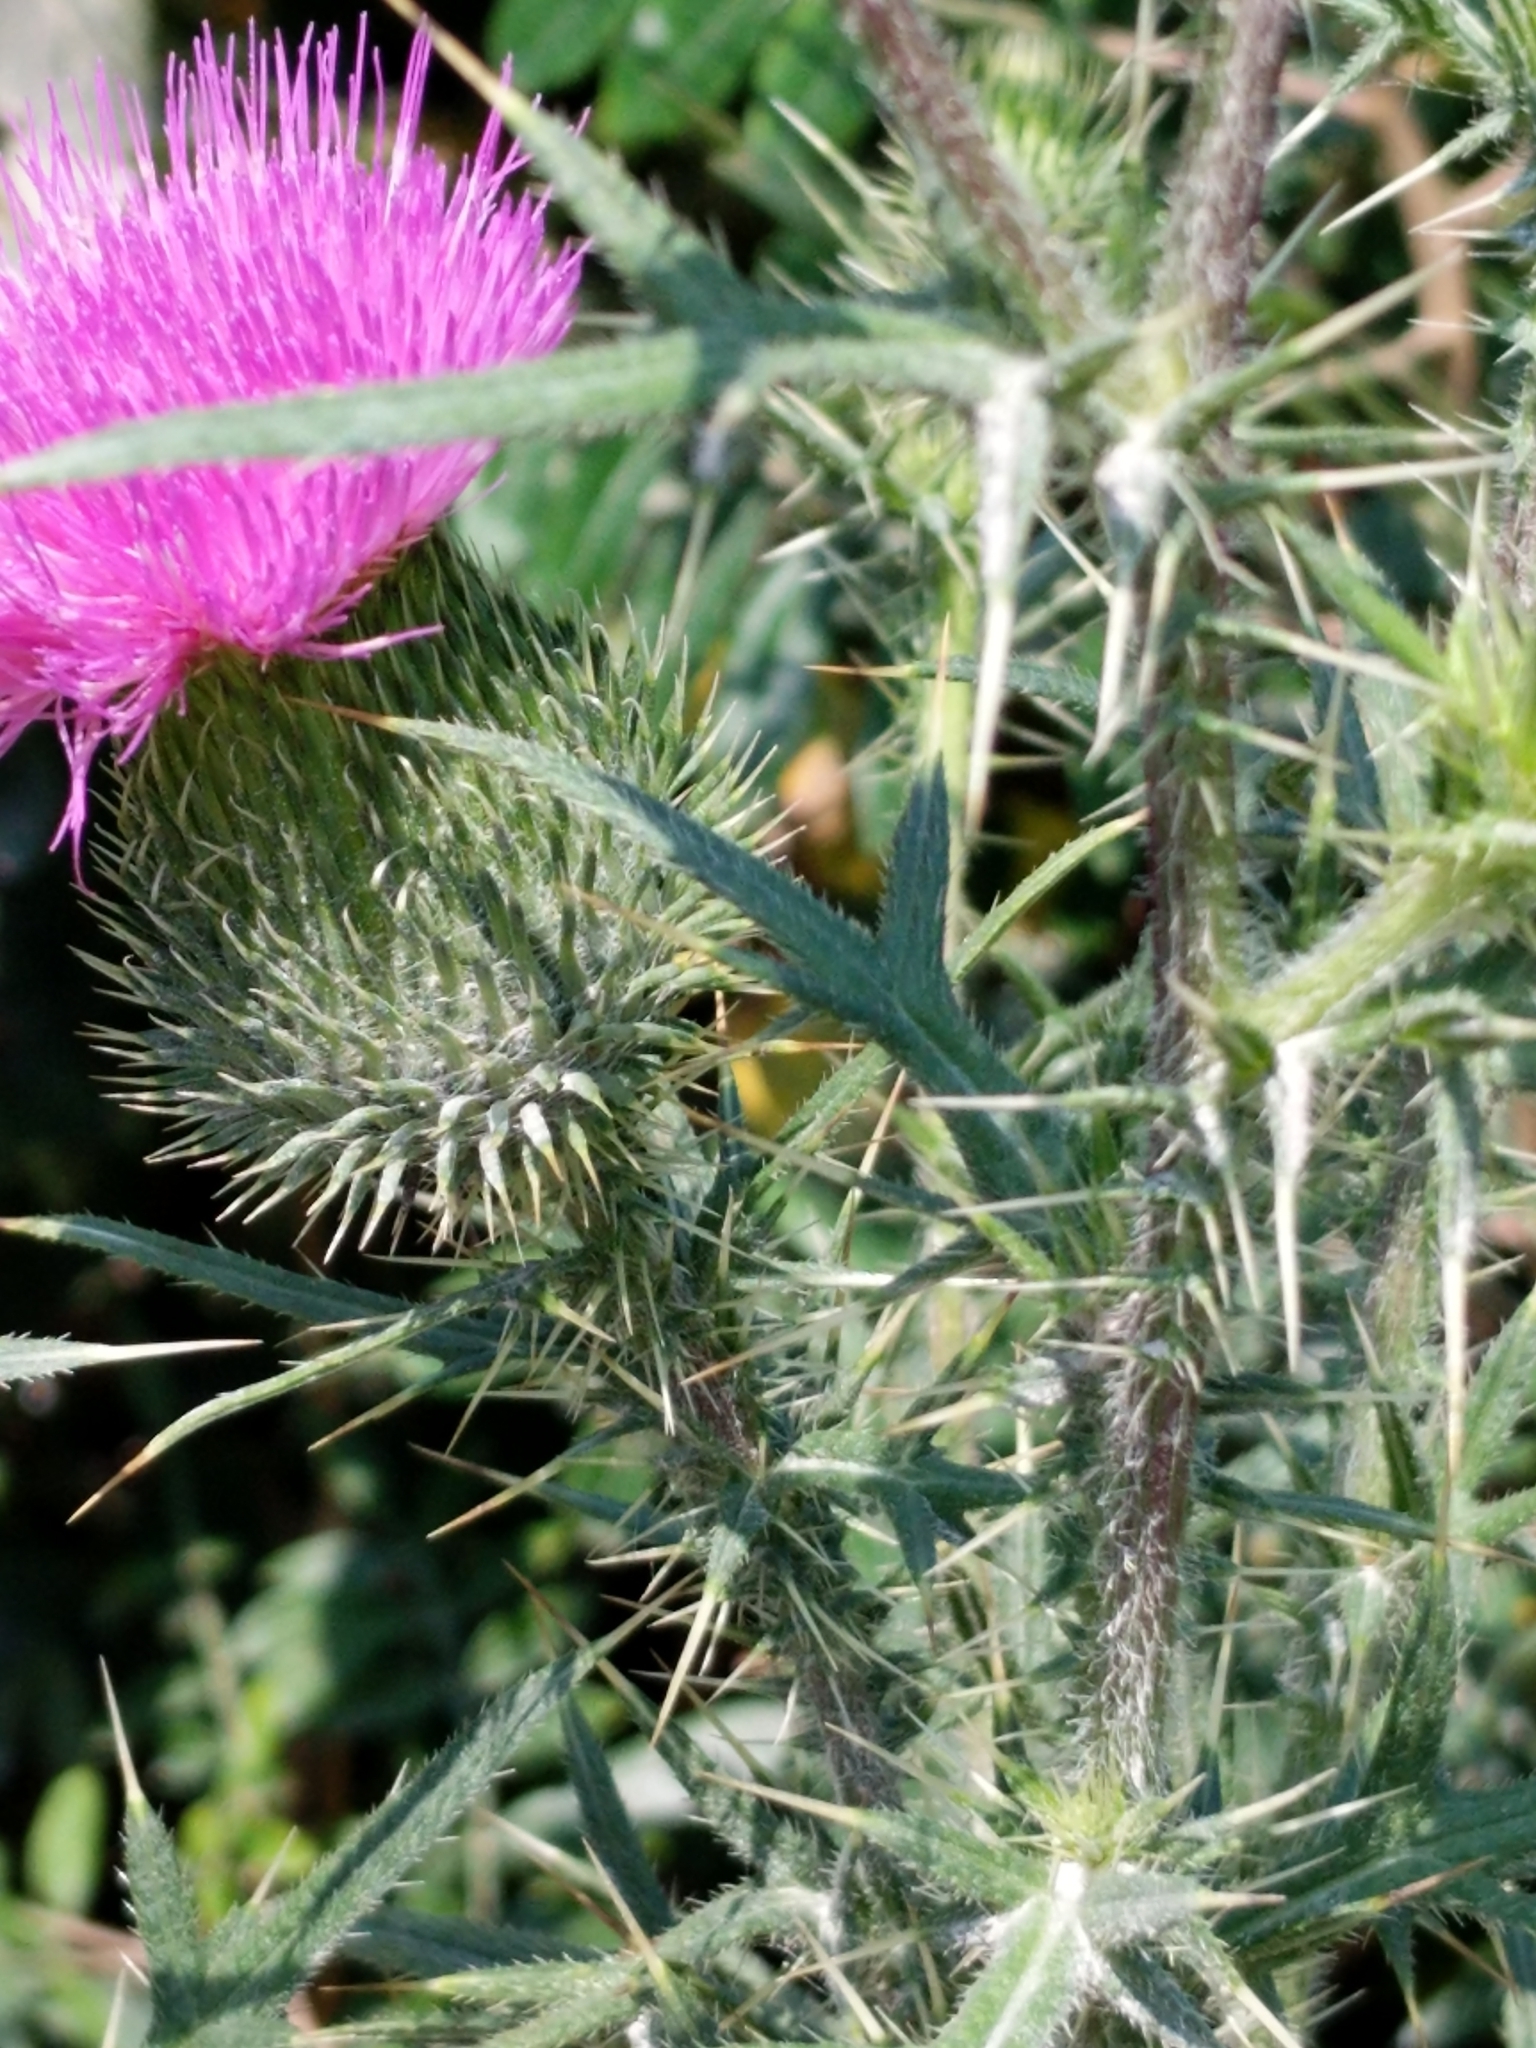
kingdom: Plantae
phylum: Tracheophyta
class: Magnoliopsida
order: Asterales
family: Asteraceae
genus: Cirsium
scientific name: Cirsium vulgare
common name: Bull thistle
